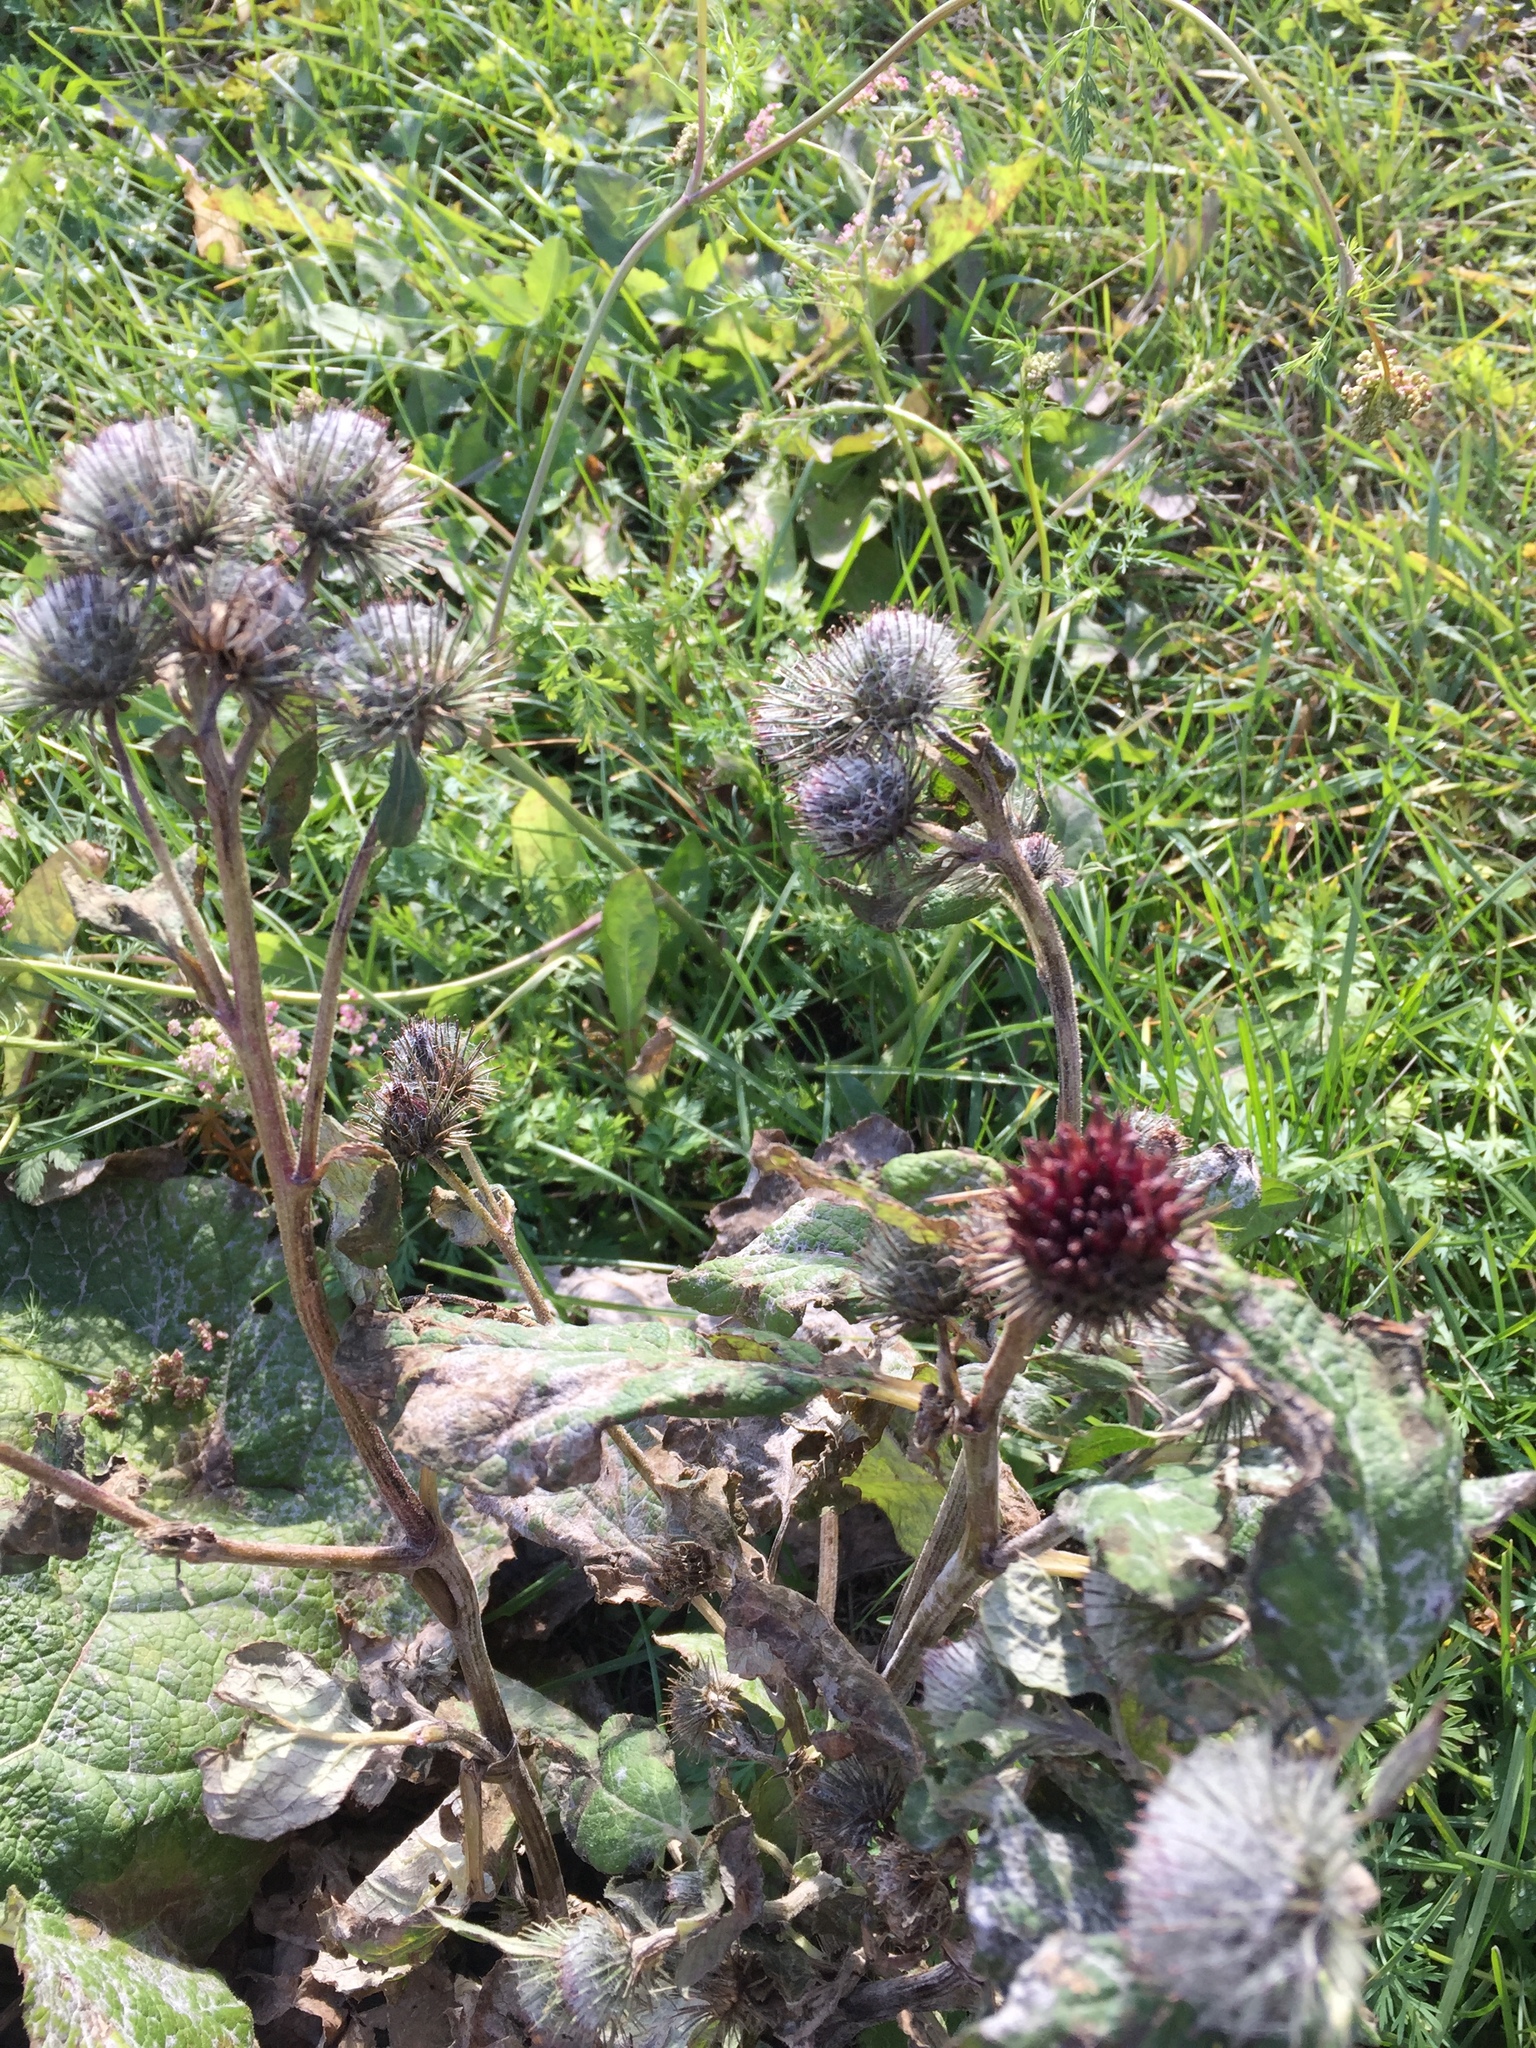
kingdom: Plantae
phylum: Tracheophyta
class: Magnoliopsida
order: Asterales
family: Asteraceae
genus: Arctium
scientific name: Arctium tomentosum
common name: Woolly burdock
